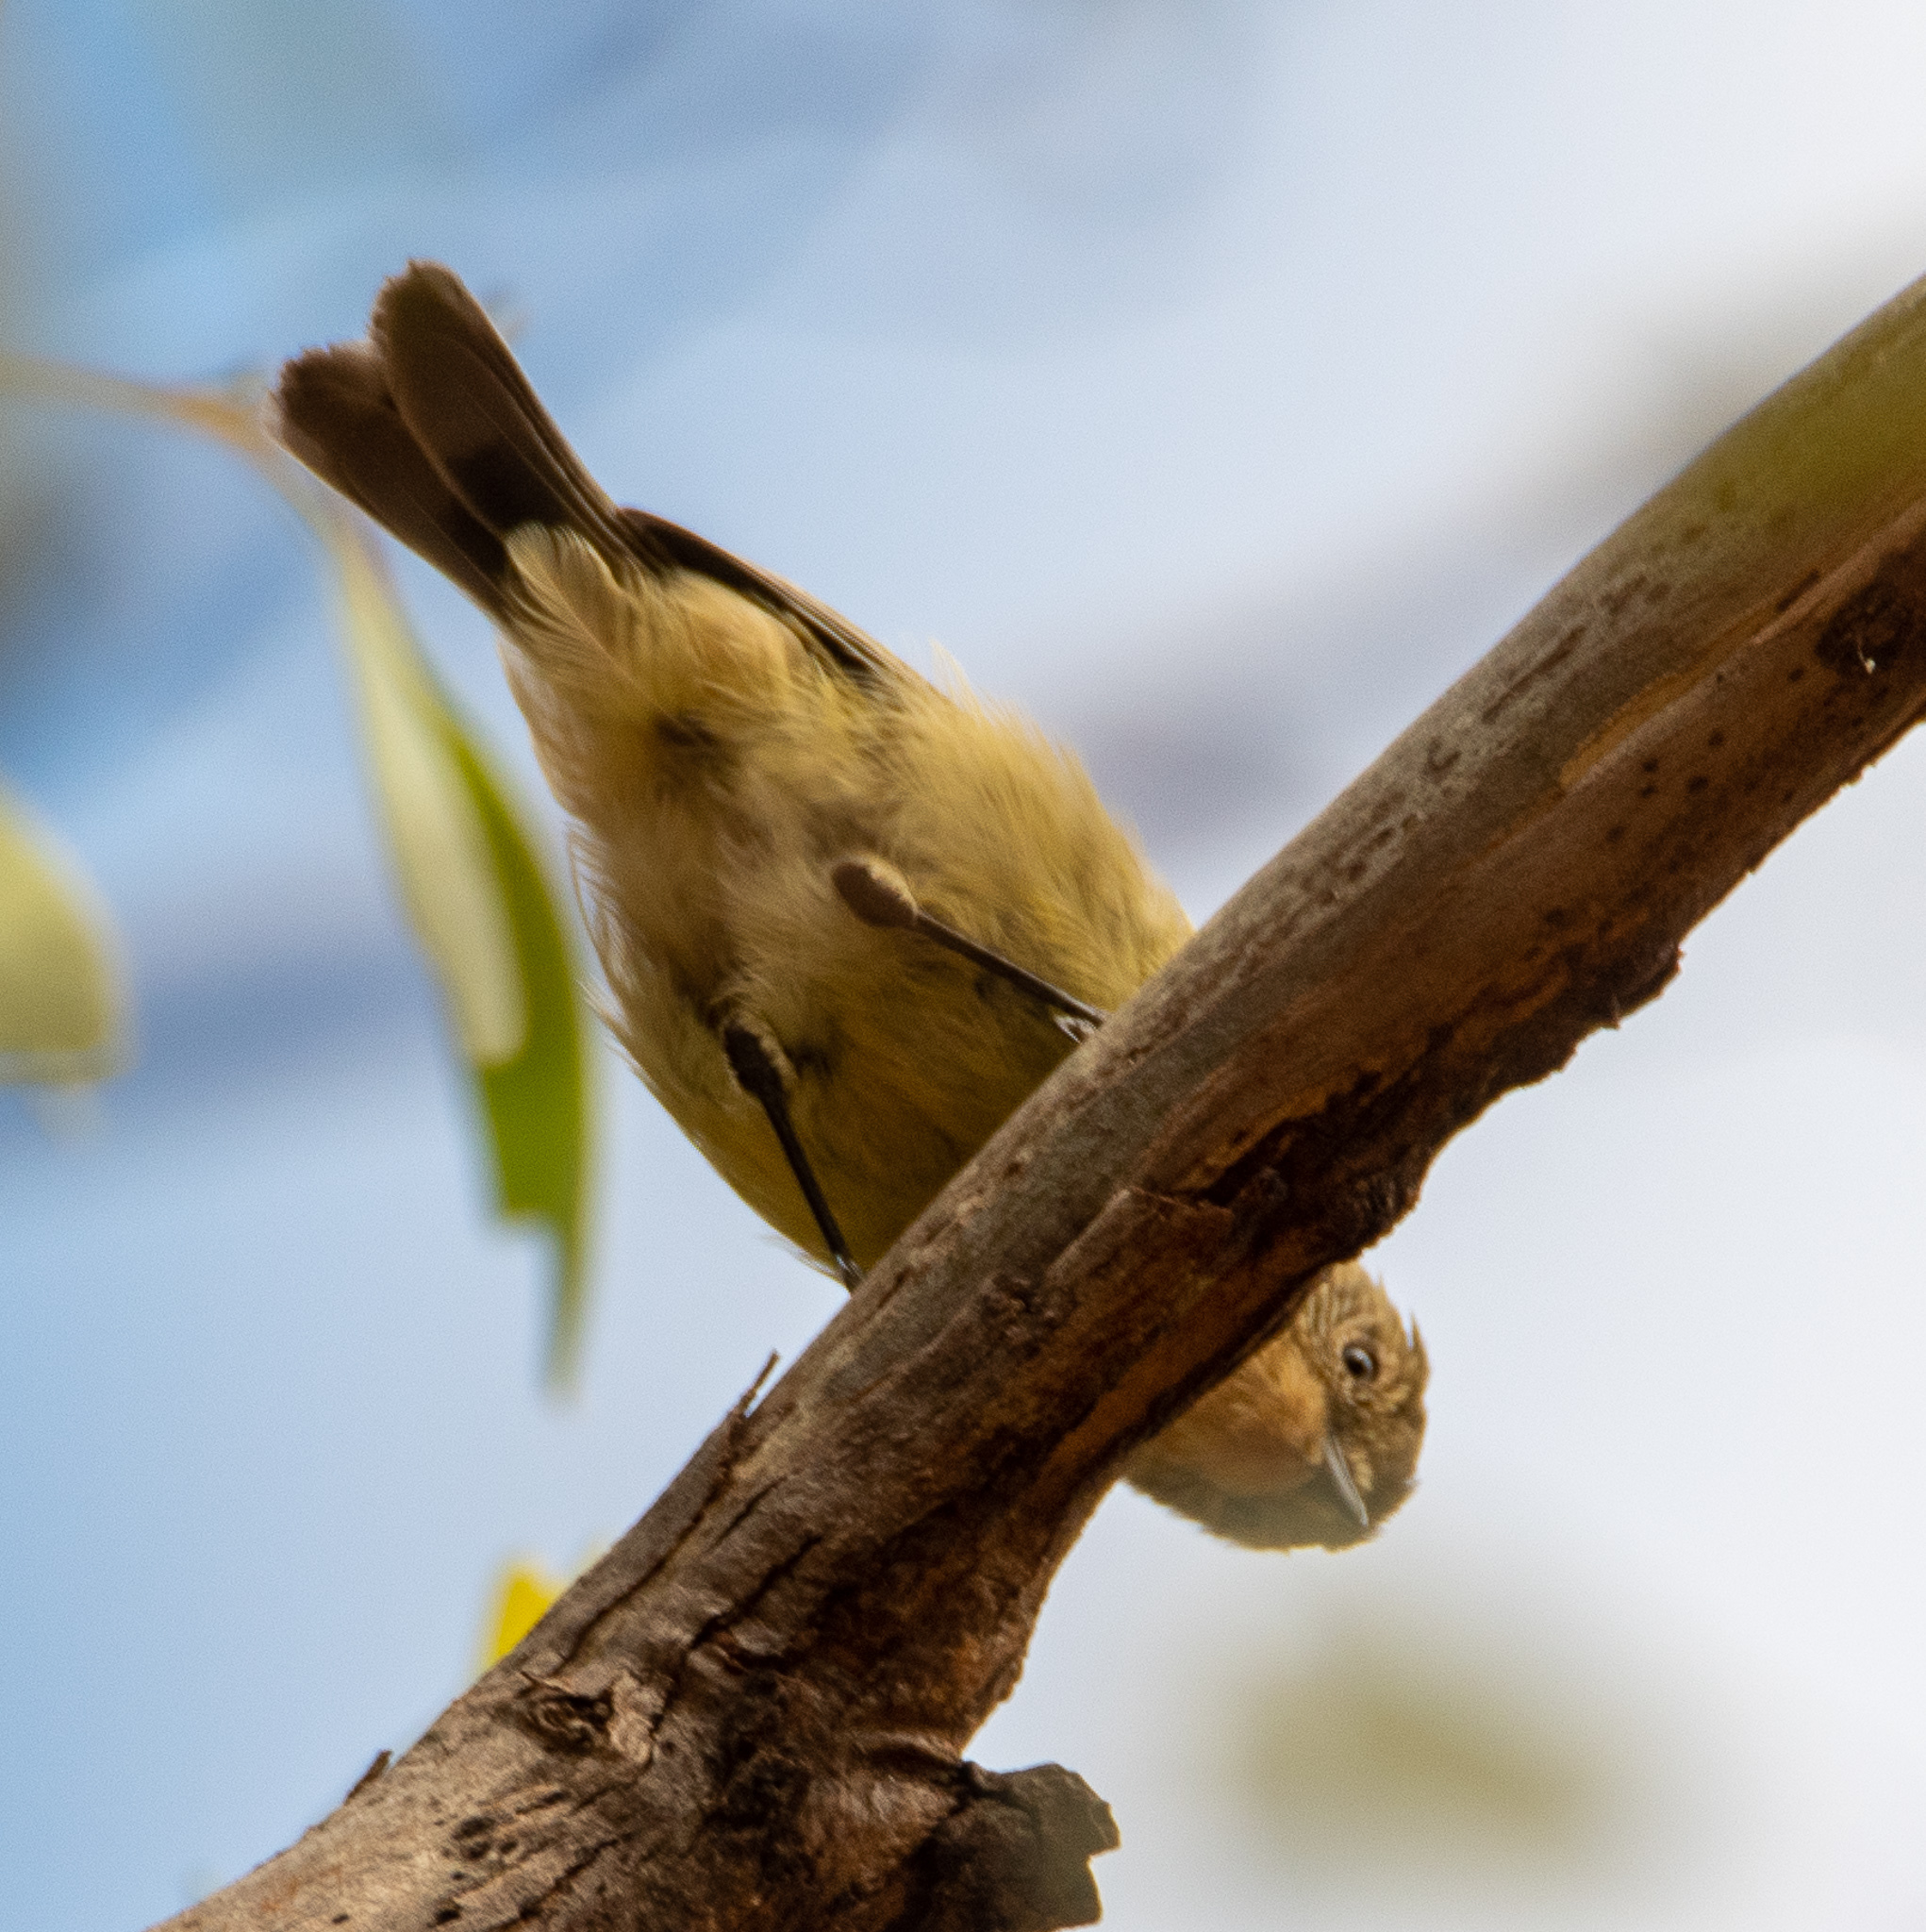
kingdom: Animalia
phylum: Chordata
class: Aves
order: Passeriformes
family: Acanthizidae
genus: Acanthiza
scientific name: Acanthiza nana
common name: Yellow thornbill
